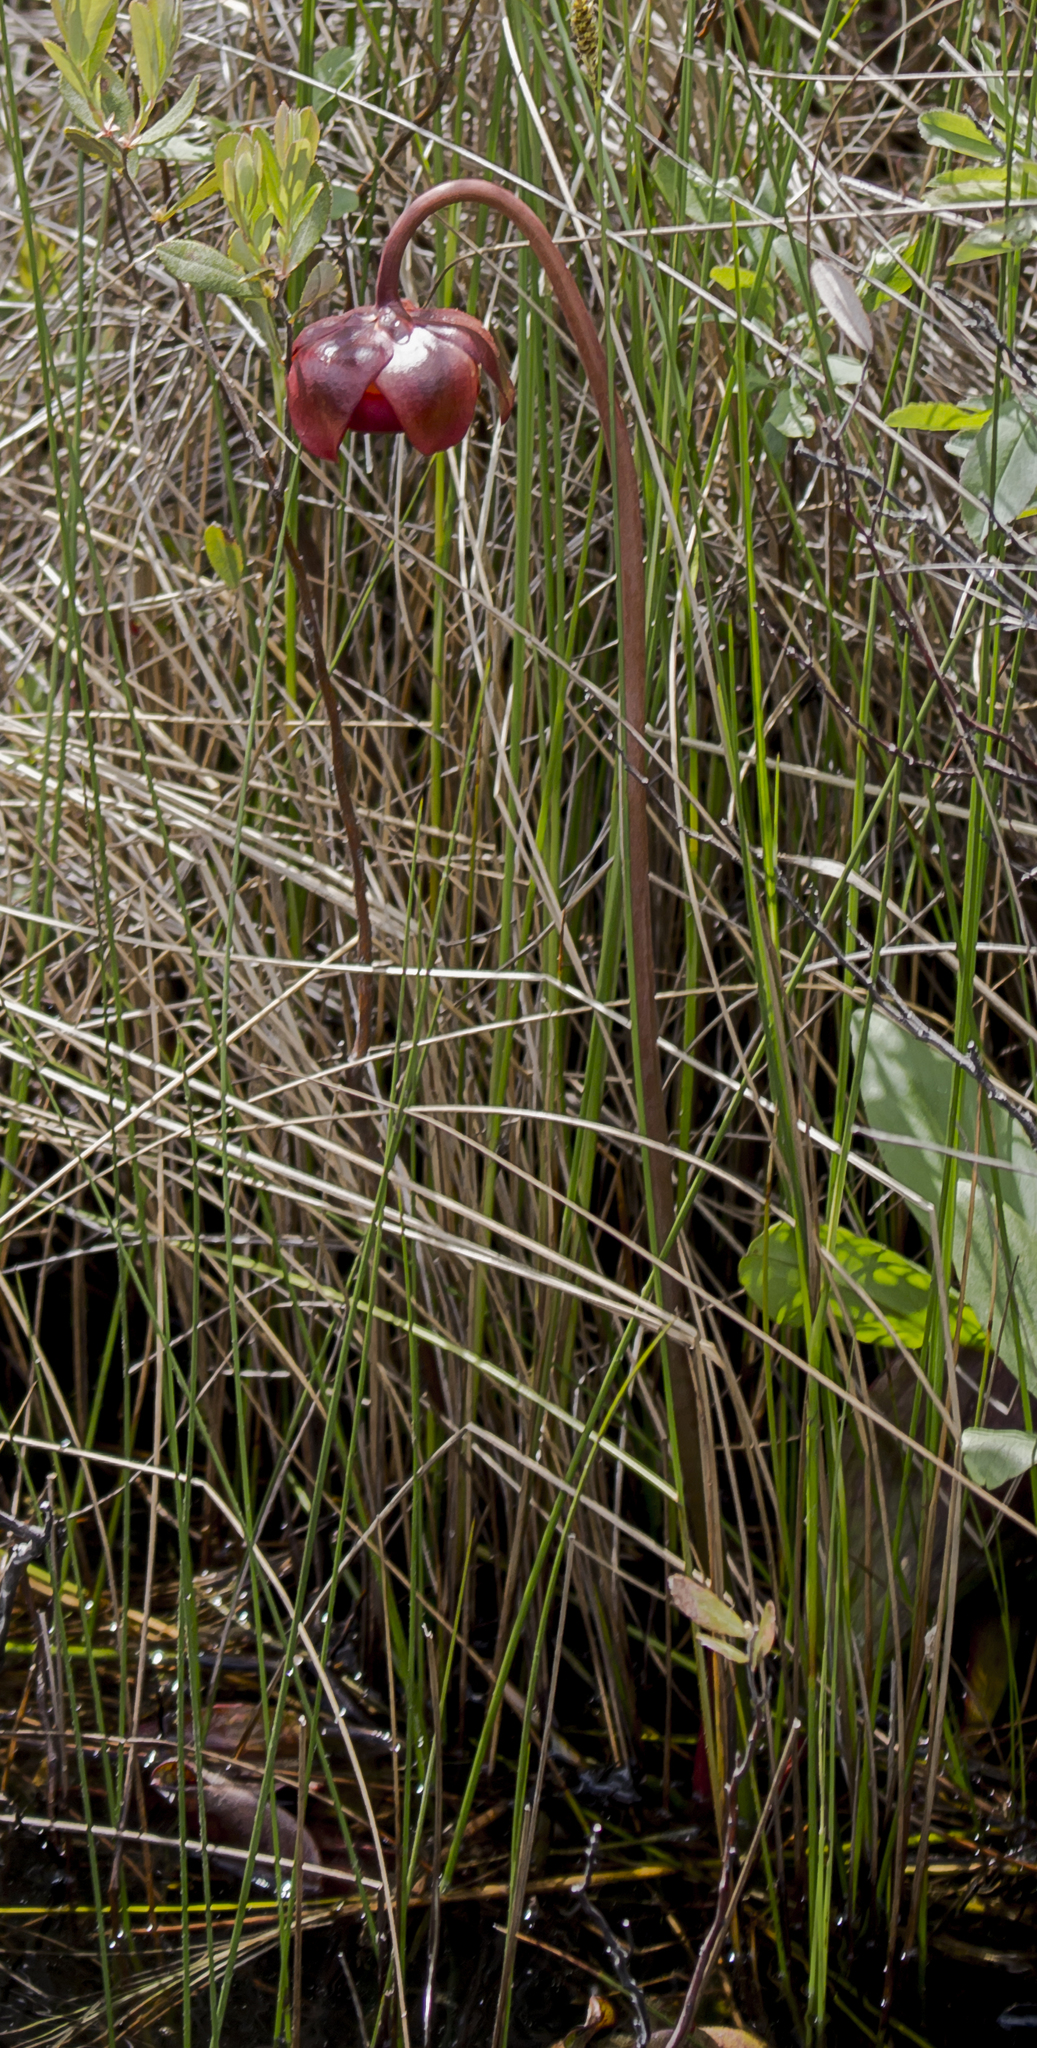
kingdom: Plantae
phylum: Tracheophyta
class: Magnoliopsida
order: Ericales
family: Sarraceniaceae
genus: Sarracenia
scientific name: Sarracenia purpurea
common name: Pitcherplant
